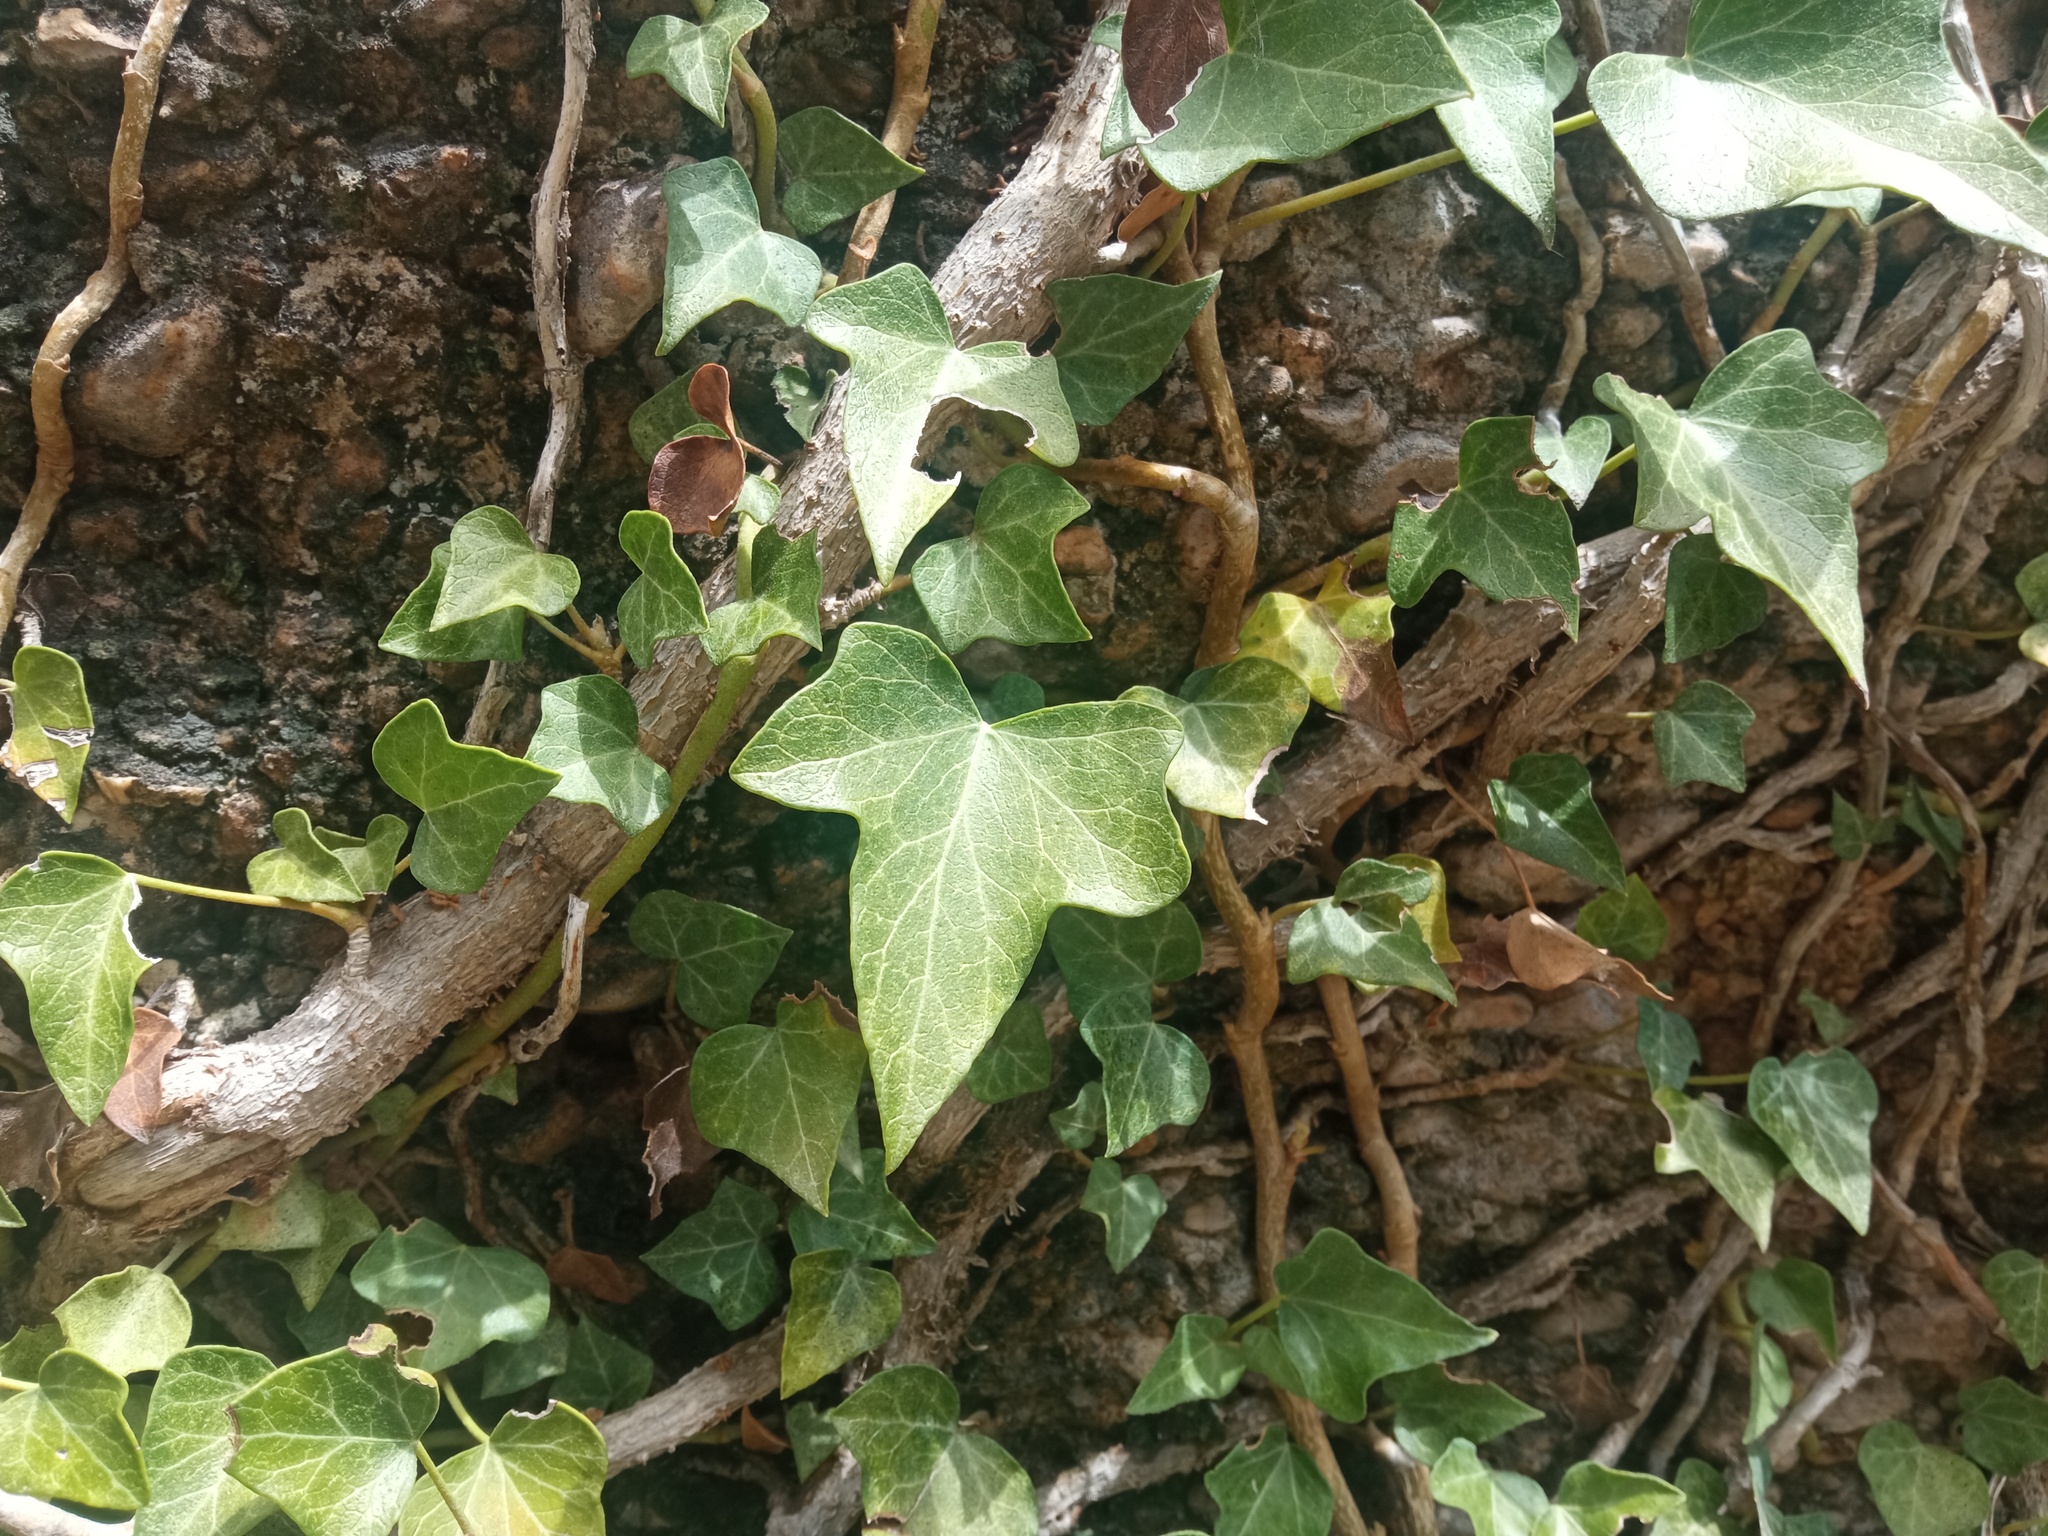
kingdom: Plantae
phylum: Tracheophyta
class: Magnoliopsida
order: Apiales
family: Araliaceae
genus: Hedera
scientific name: Hedera helix
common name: Ivy
